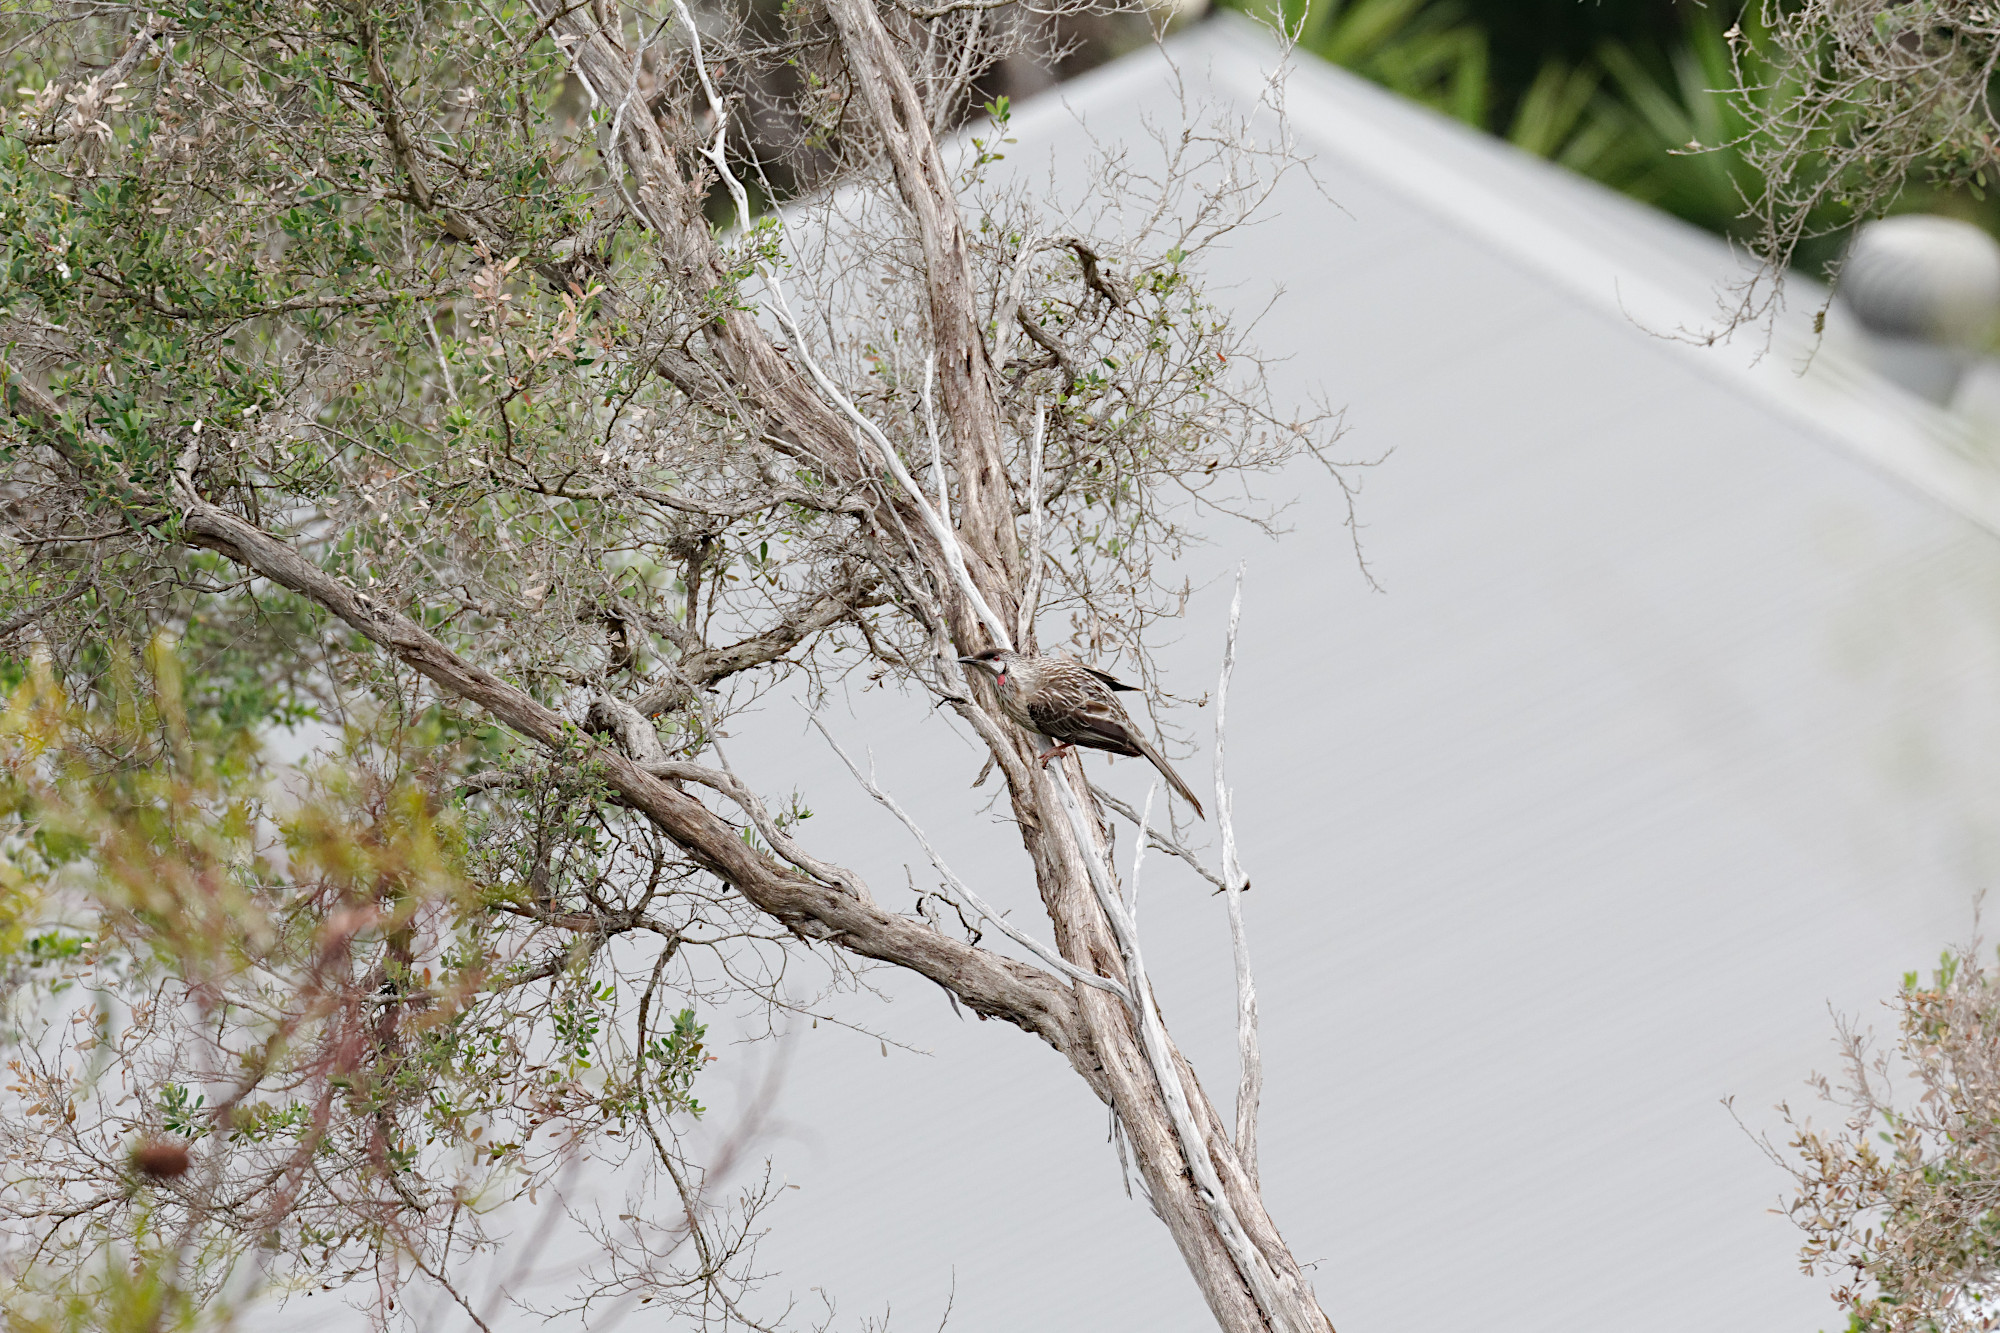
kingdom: Animalia
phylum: Chordata
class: Aves
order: Passeriformes
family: Meliphagidae
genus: Anthochaera
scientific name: Anthochaera carunculata
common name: Red wattlebird
